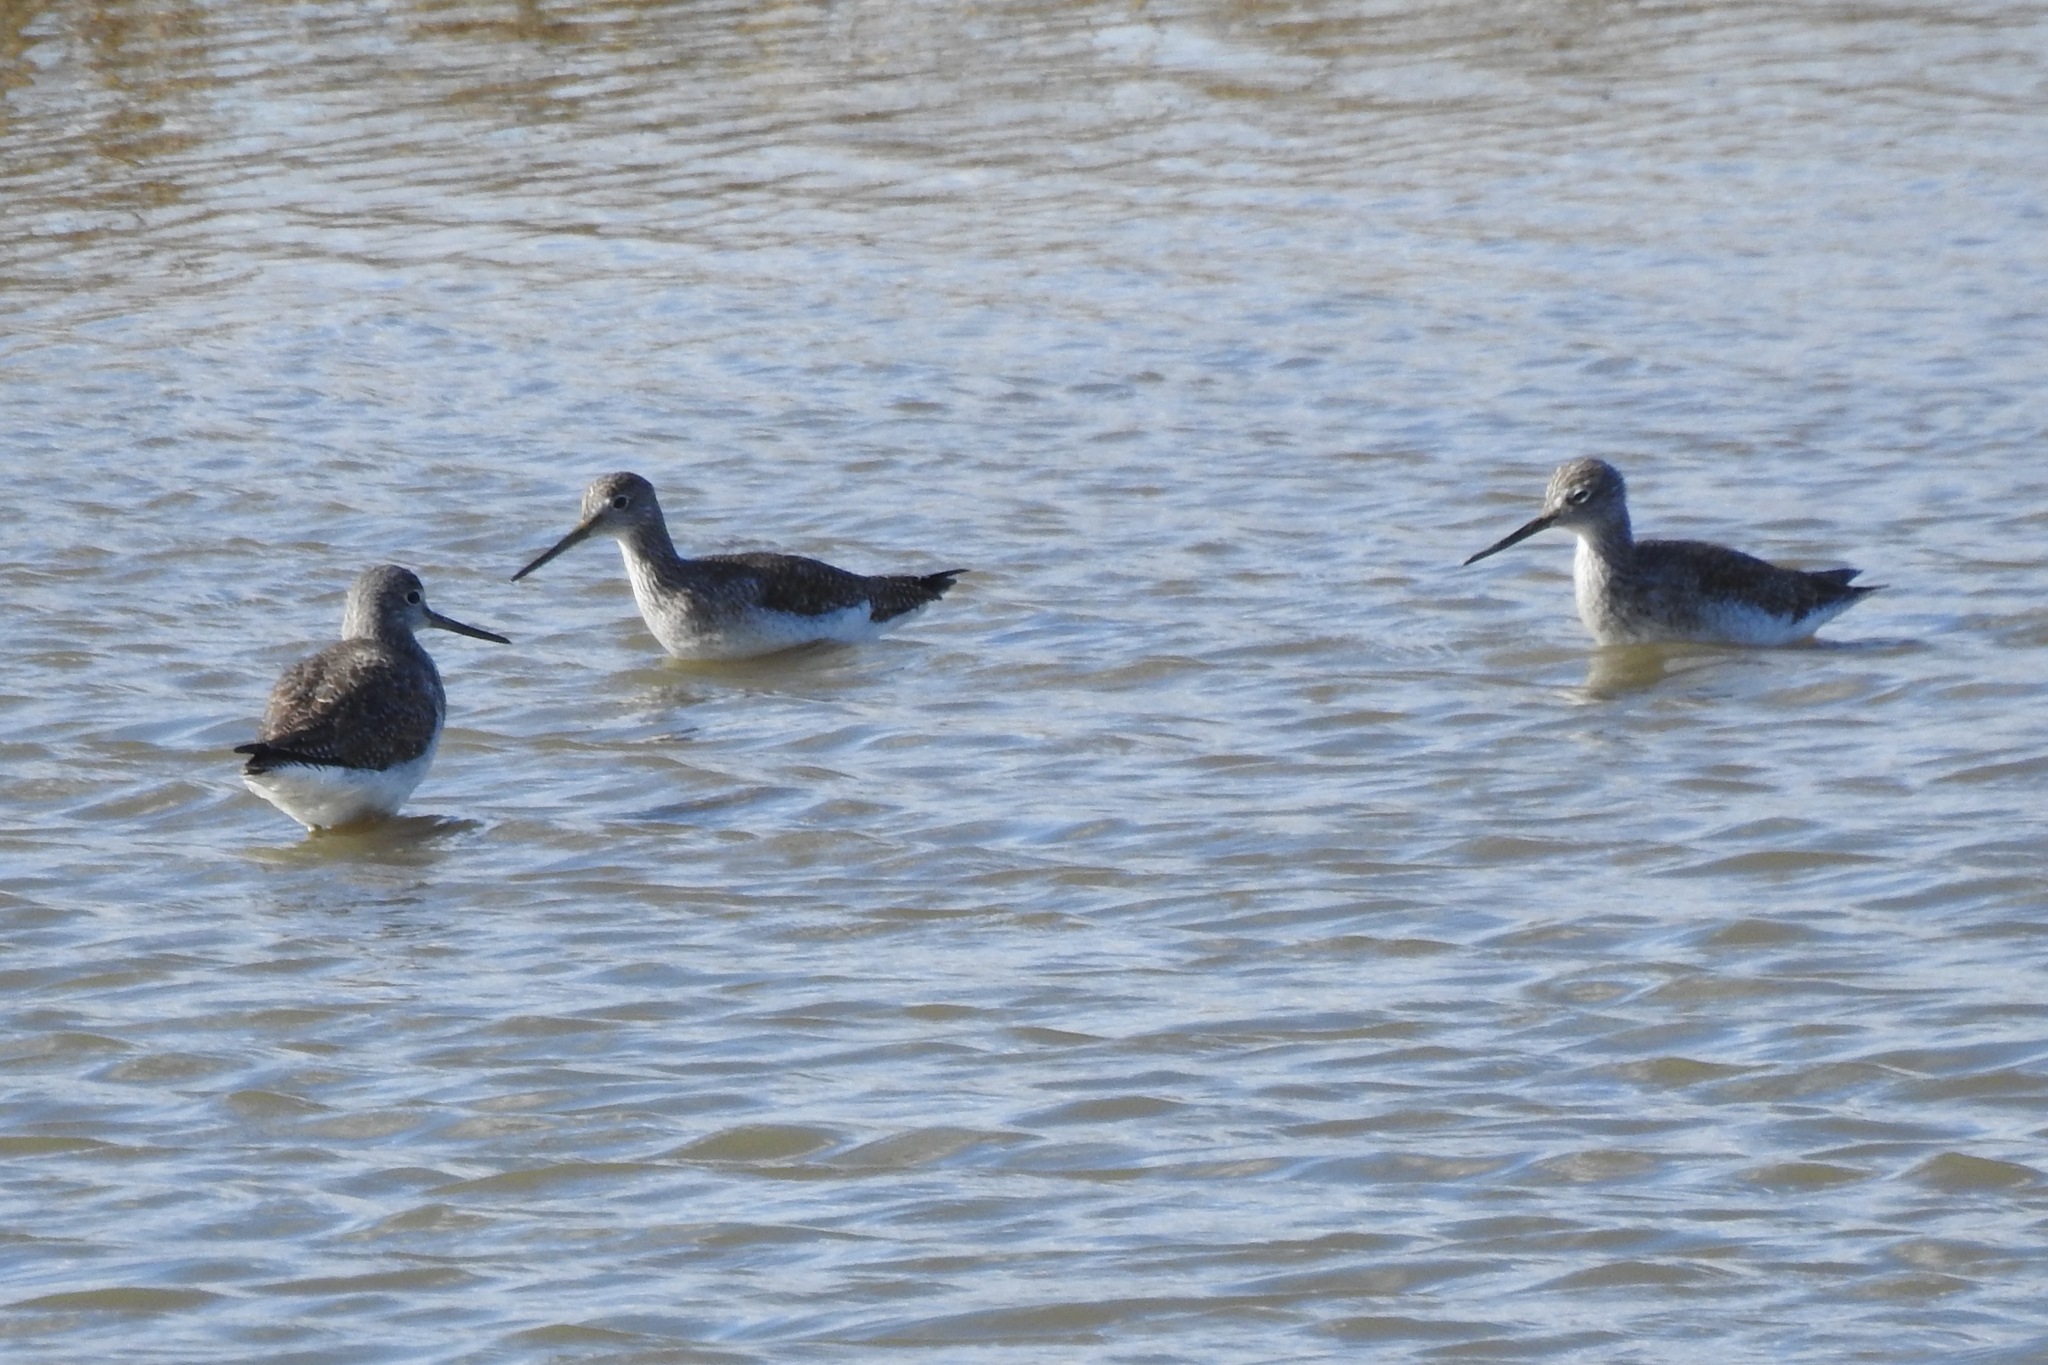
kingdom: Animalia
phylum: Chordata
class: Aves
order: Charadriiformes
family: Scolopacidae
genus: Tringa
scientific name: Tringa melanoleuca
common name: Greater yellowlegs
